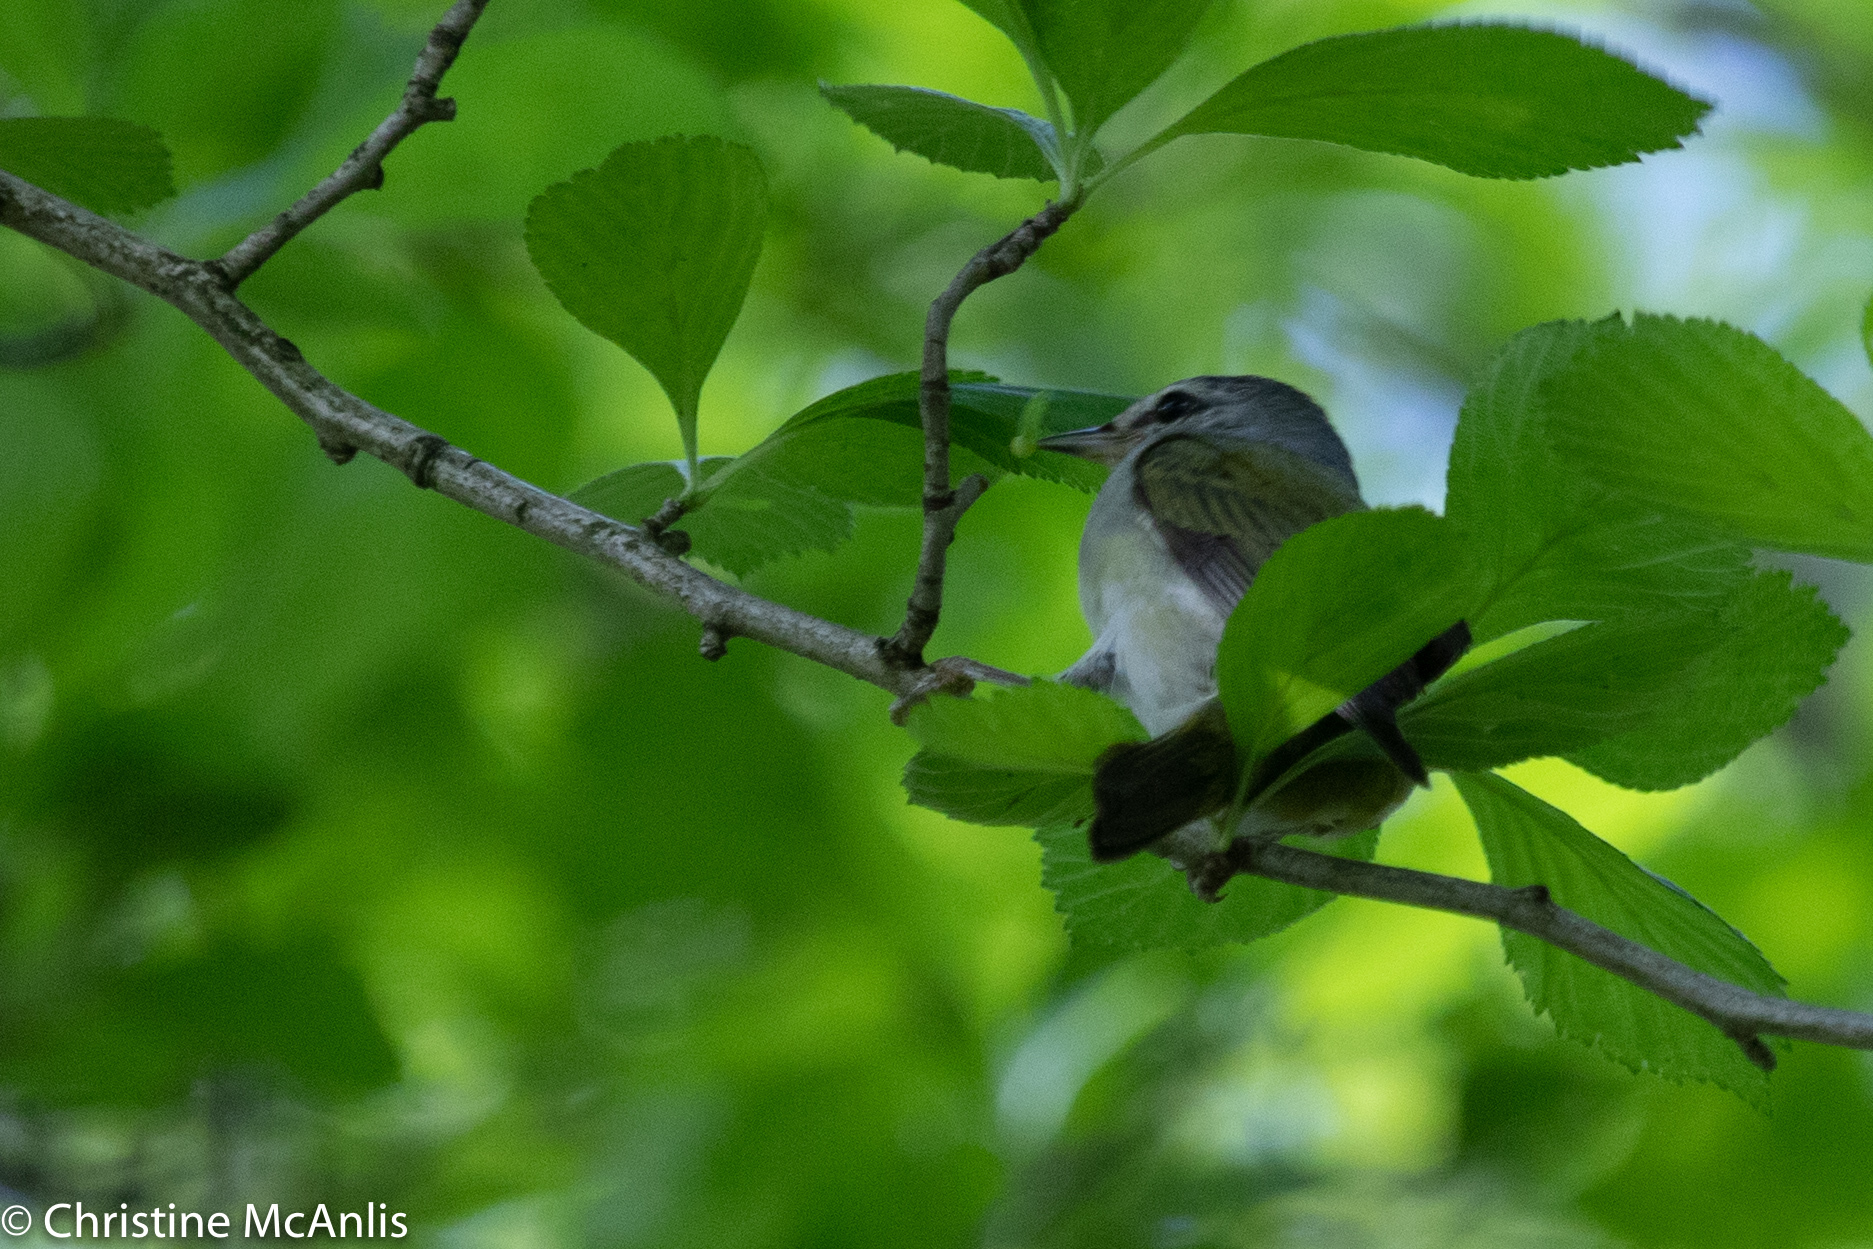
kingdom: Animalia
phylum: Chordata
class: Aves
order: Passeriformes
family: Parulidae
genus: Leiothlypis
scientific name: Leiothlypis peregrina
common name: Tennessee warbler
